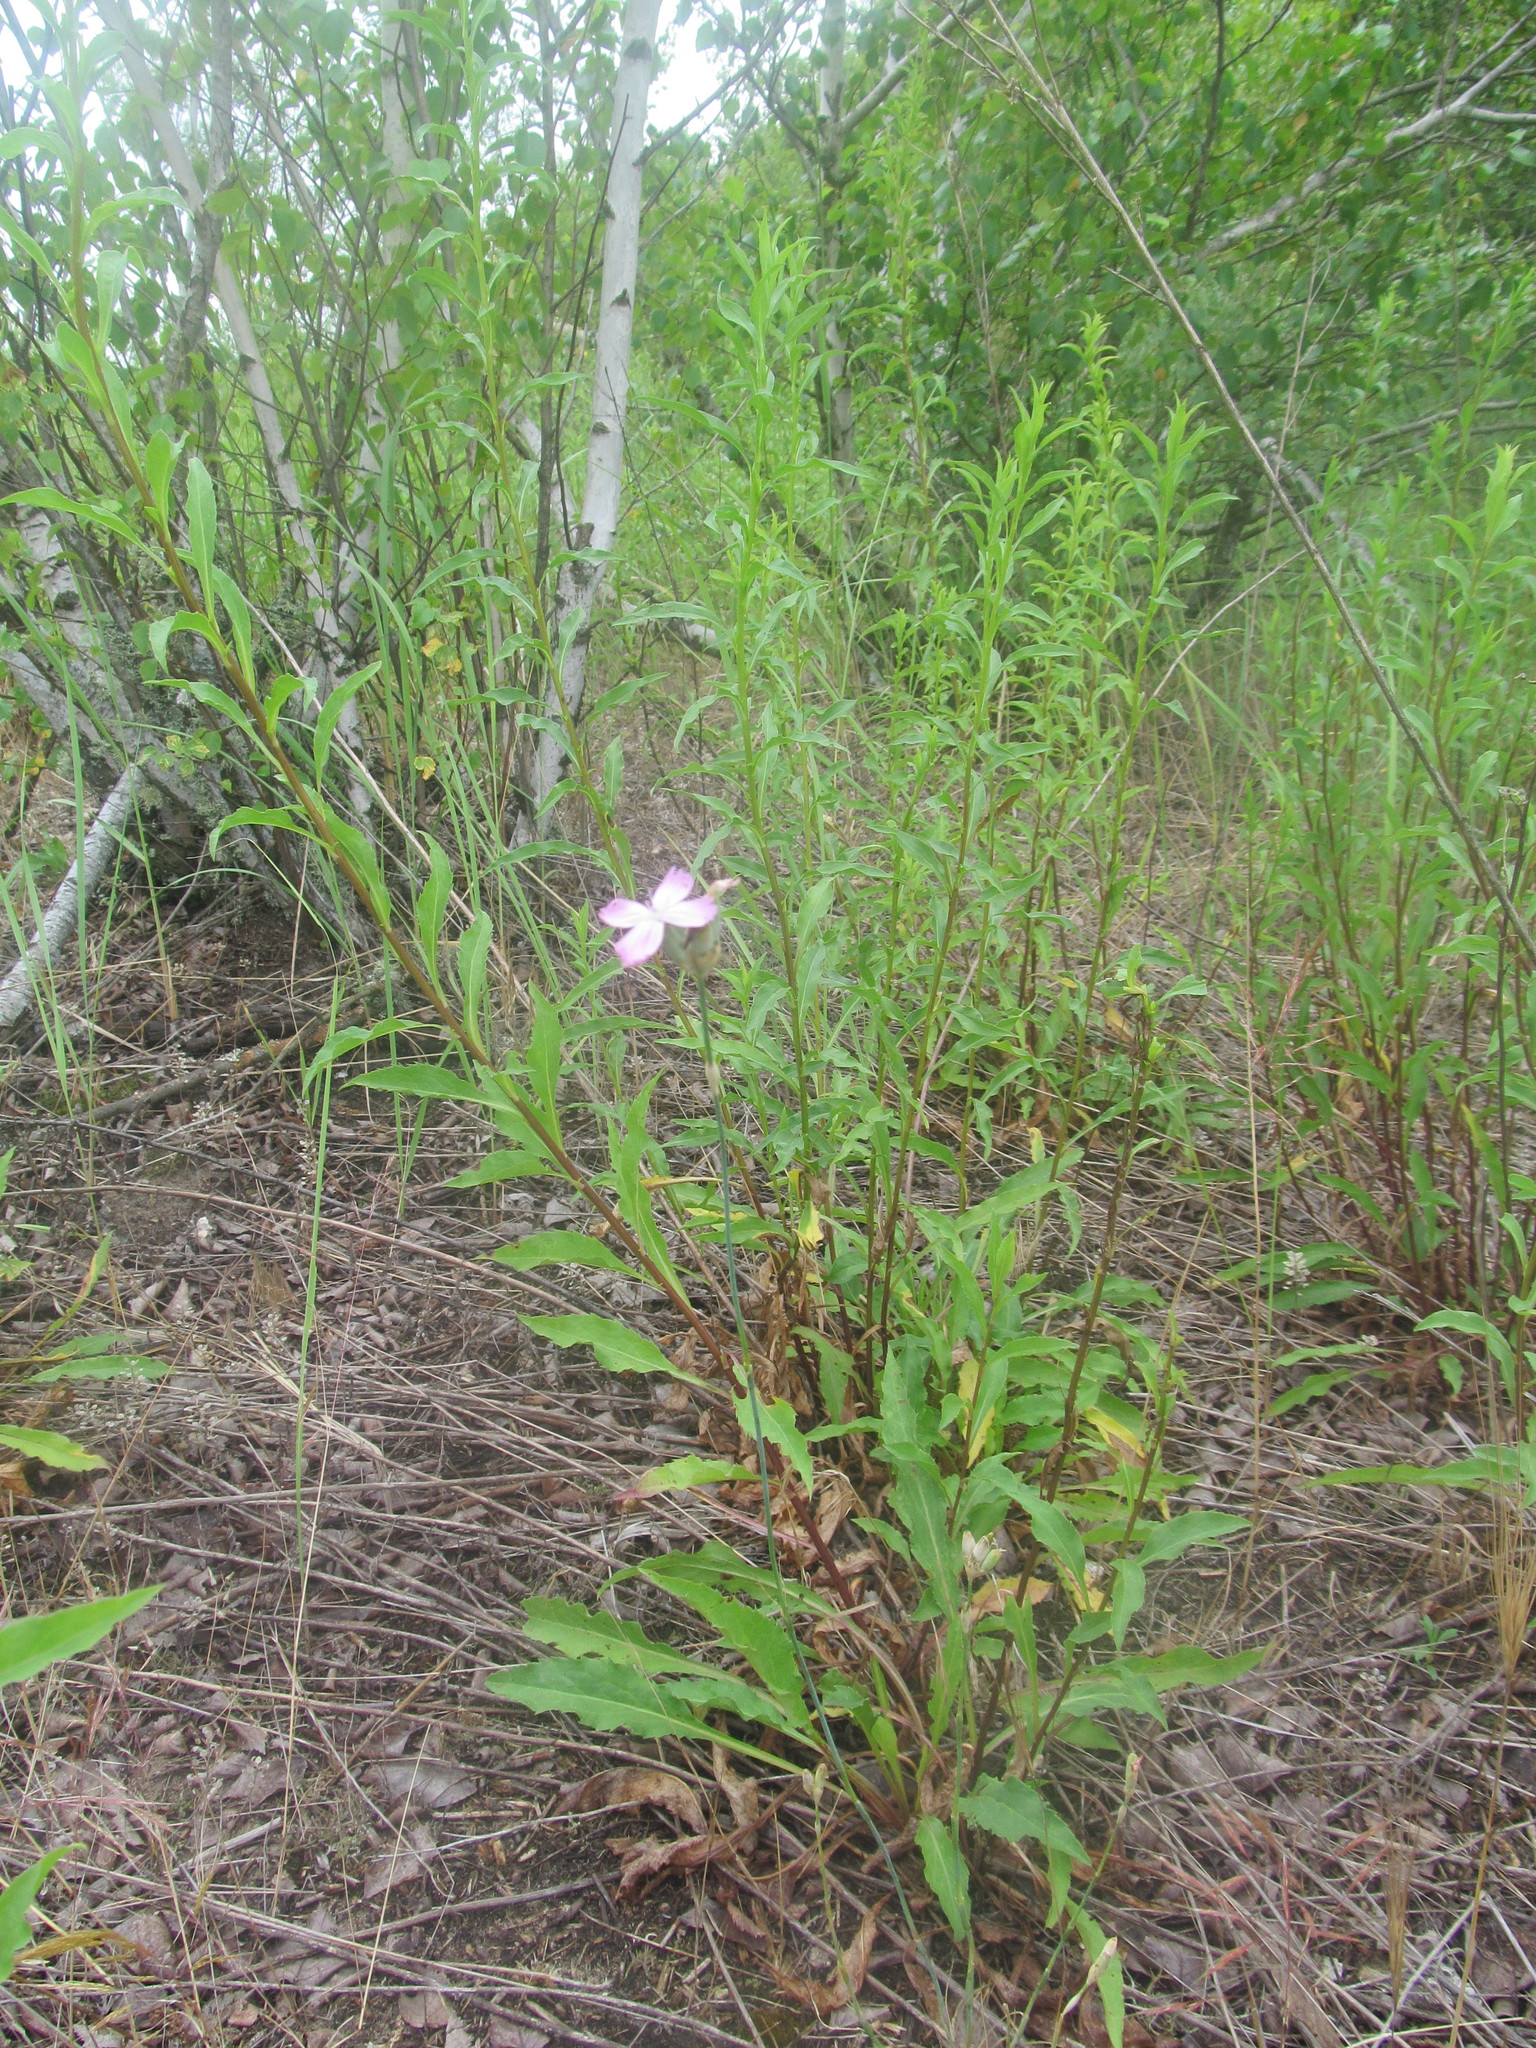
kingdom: Plantae
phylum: Tracheophyta
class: Magnoliopsida
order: Caryophyllales
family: Caryophyllaceae
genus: Dianthus
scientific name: Dianthus polymorphus
